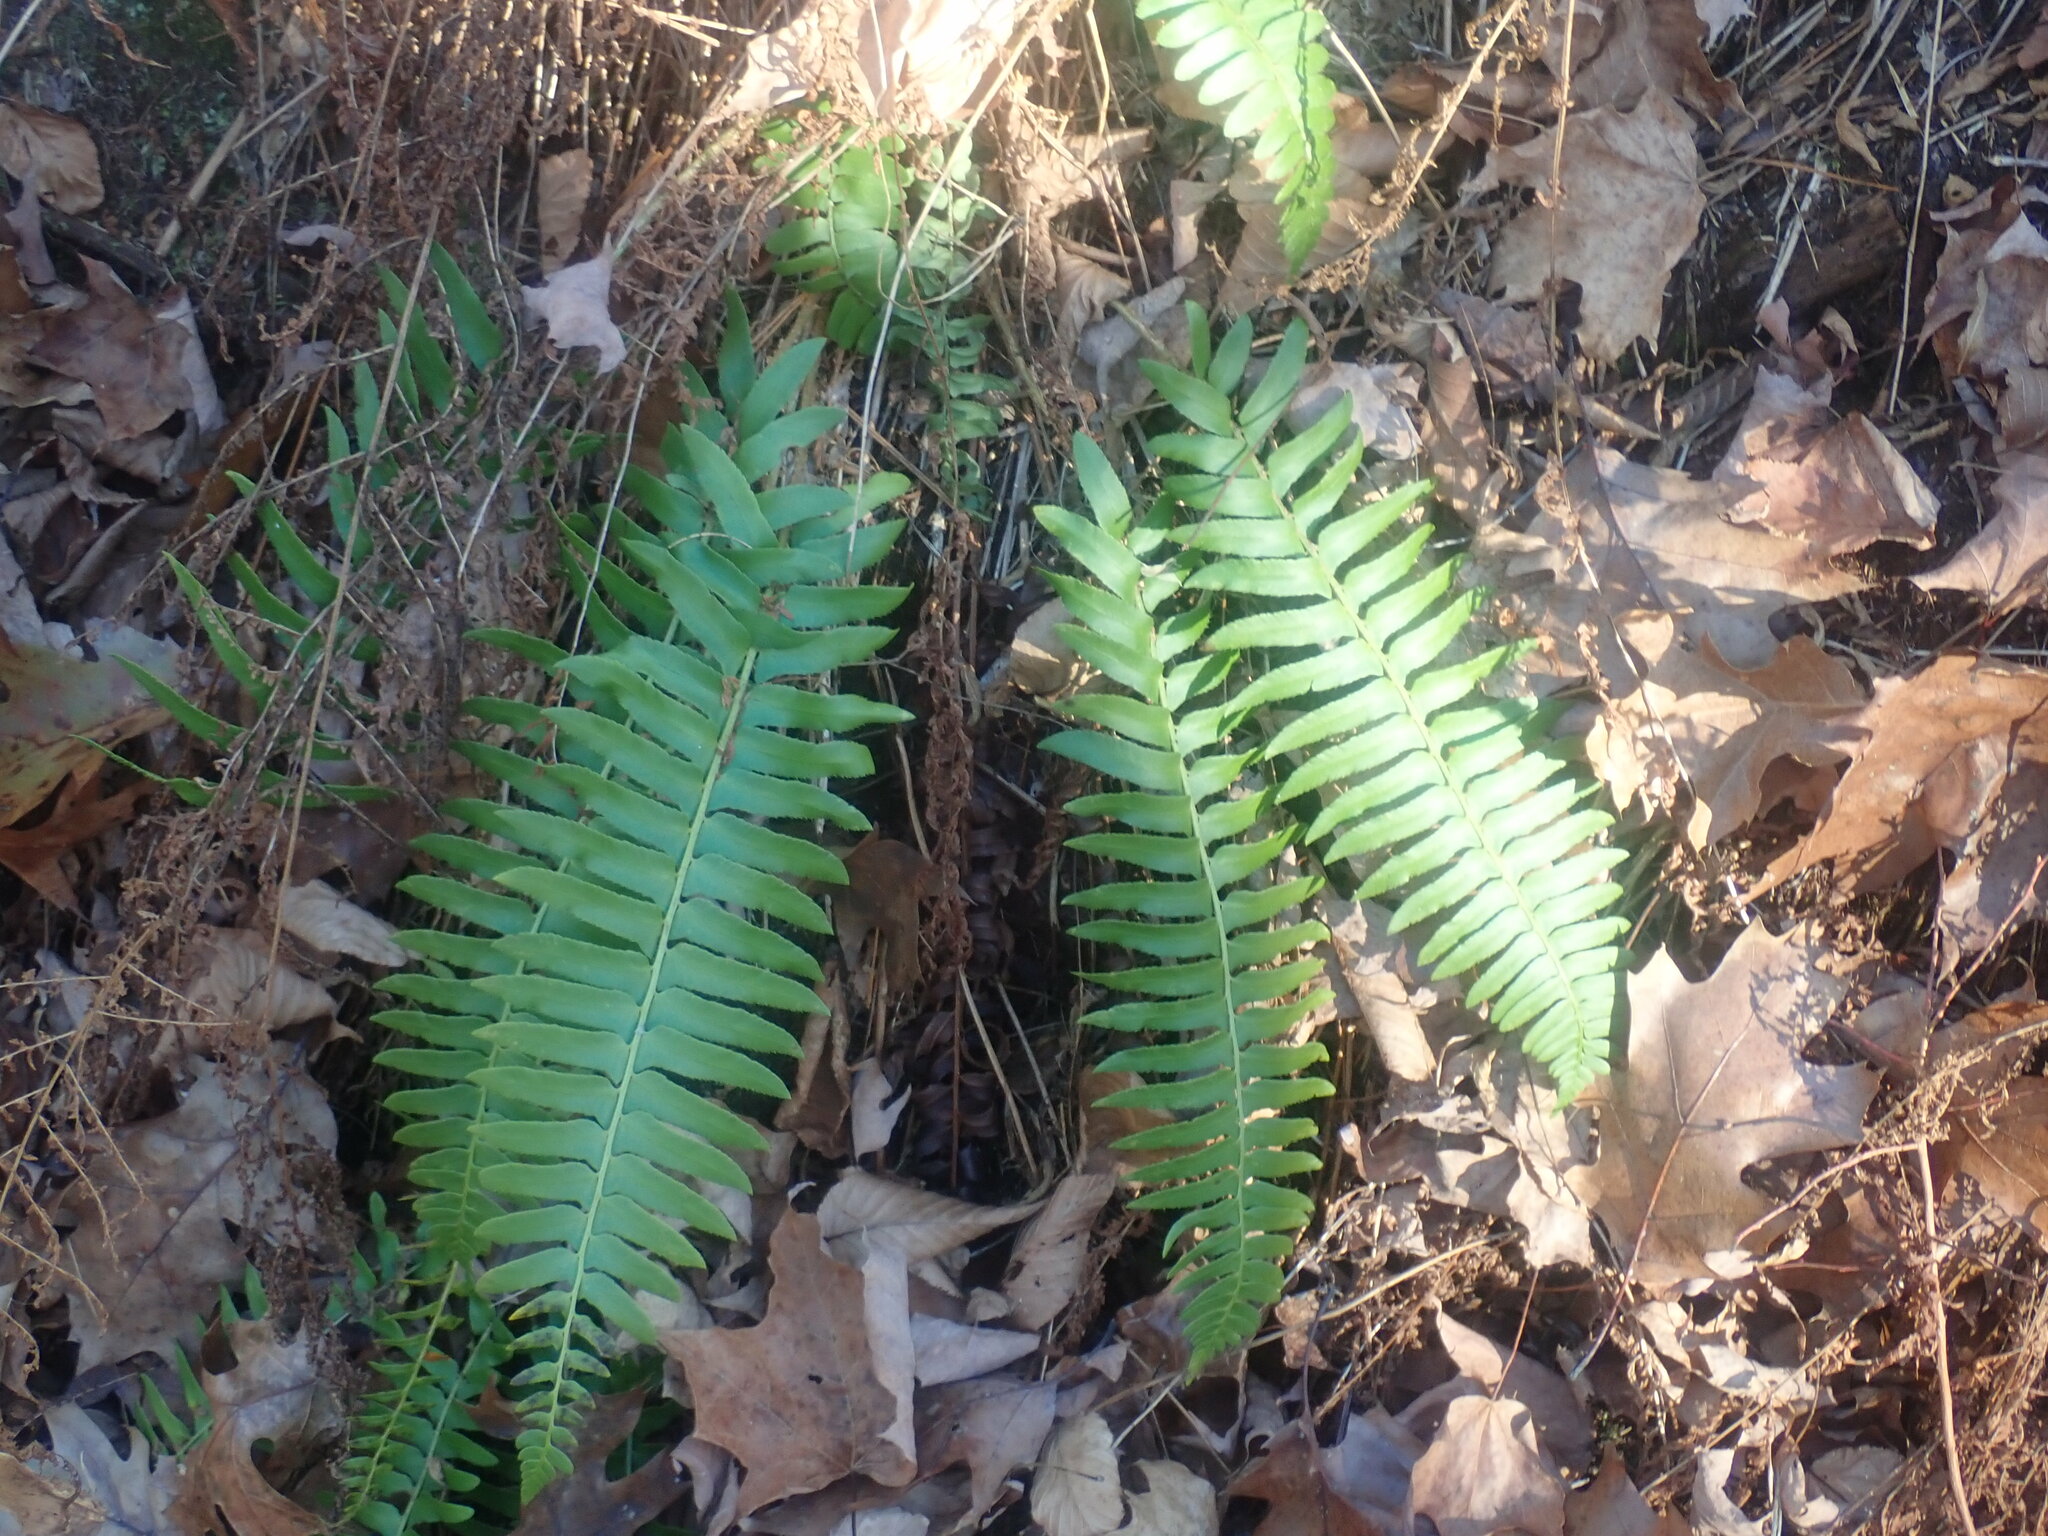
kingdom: Plantae
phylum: Tracheophyta
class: Polypodiopsida
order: Polypodiales
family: Dryopteridaceae
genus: Polystichum
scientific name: Polystichum acrostichoides
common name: Christmas fern
